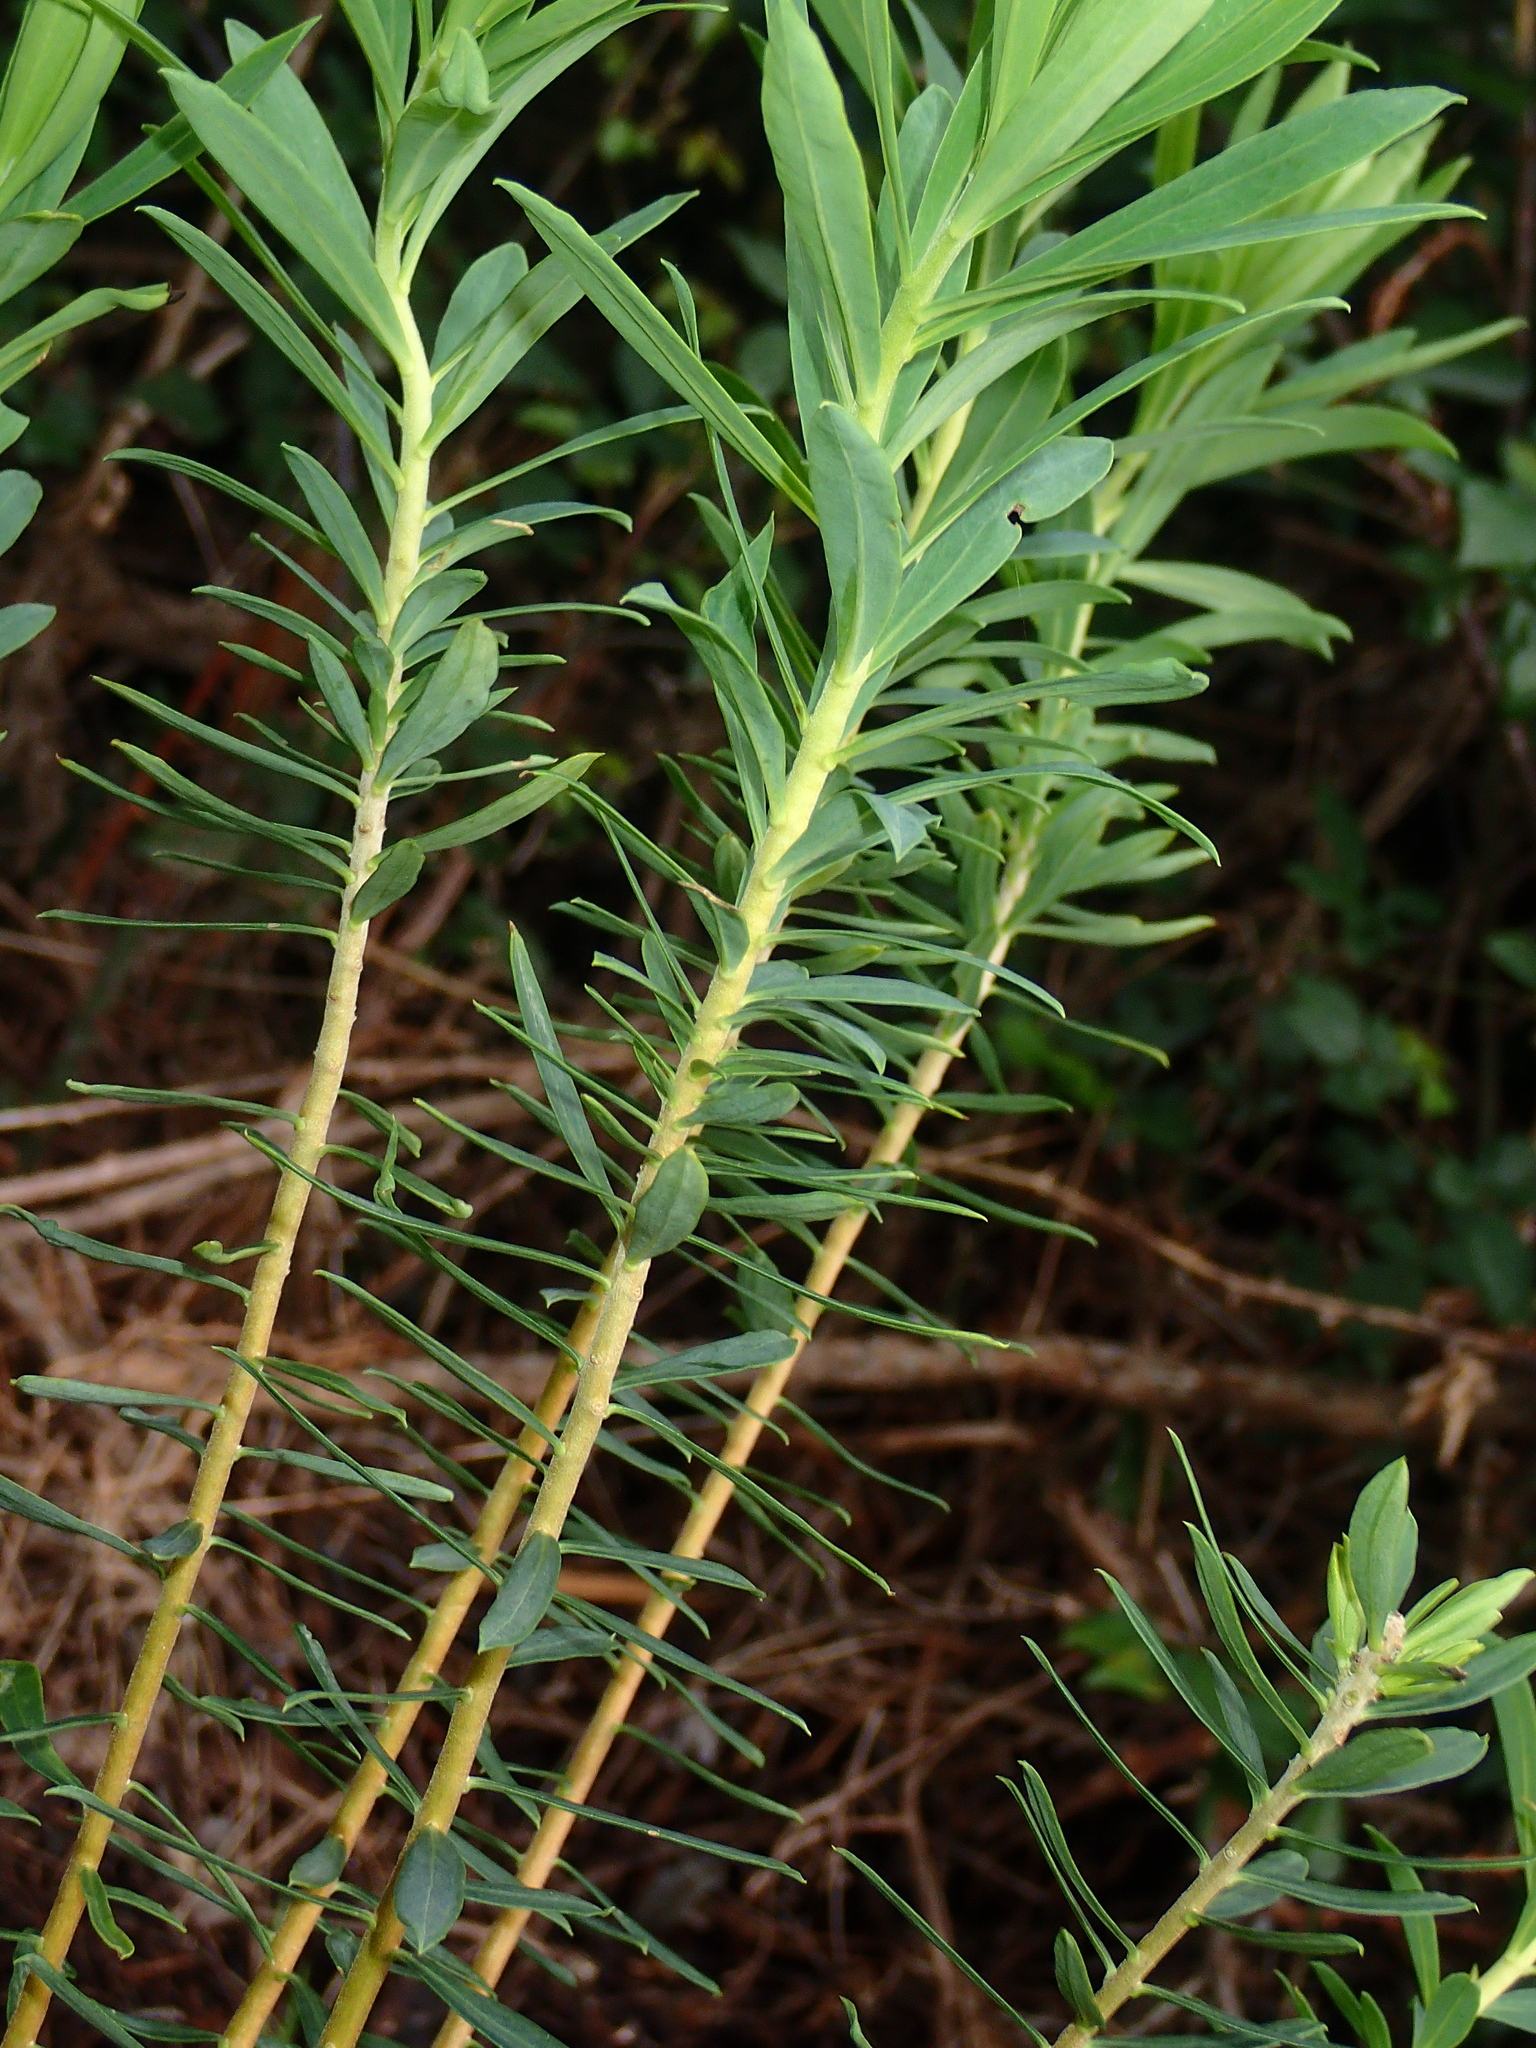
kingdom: Plantae
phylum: Tracheophyta
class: Magnoliopsida
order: Malvales
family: Thymelaeaceae
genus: Daphne
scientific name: Daphne gnidium
